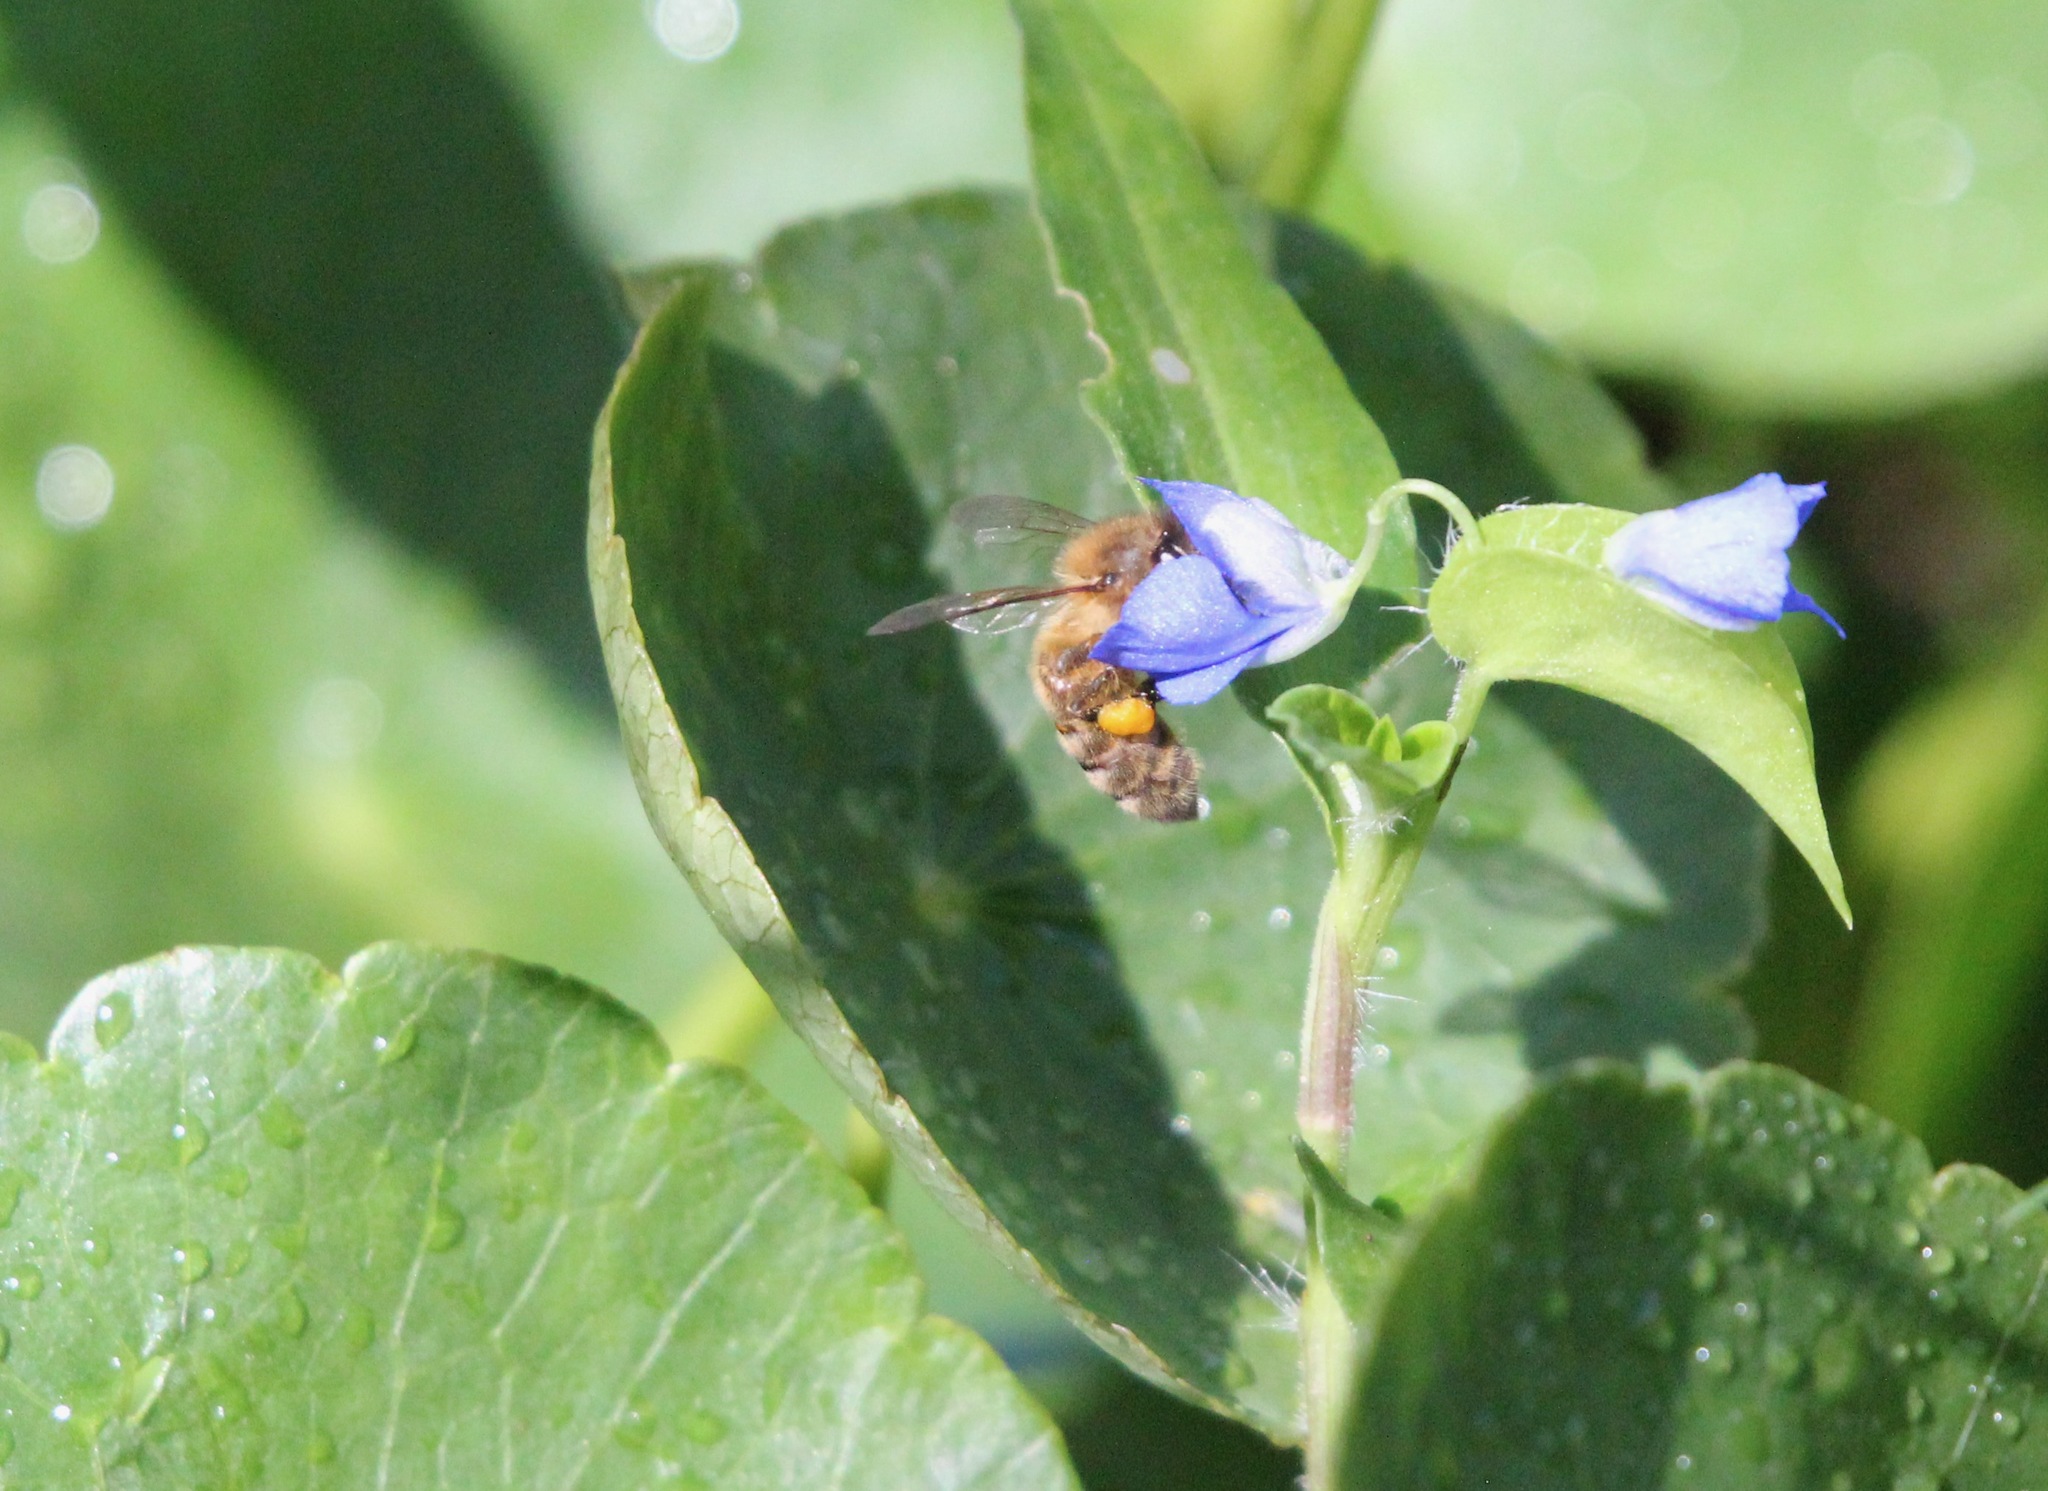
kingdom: Animalia
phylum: Arthropoda
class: Insecta
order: Hymenoptera
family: Apidae
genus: Apis
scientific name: Apis mellifera
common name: Honey bee
